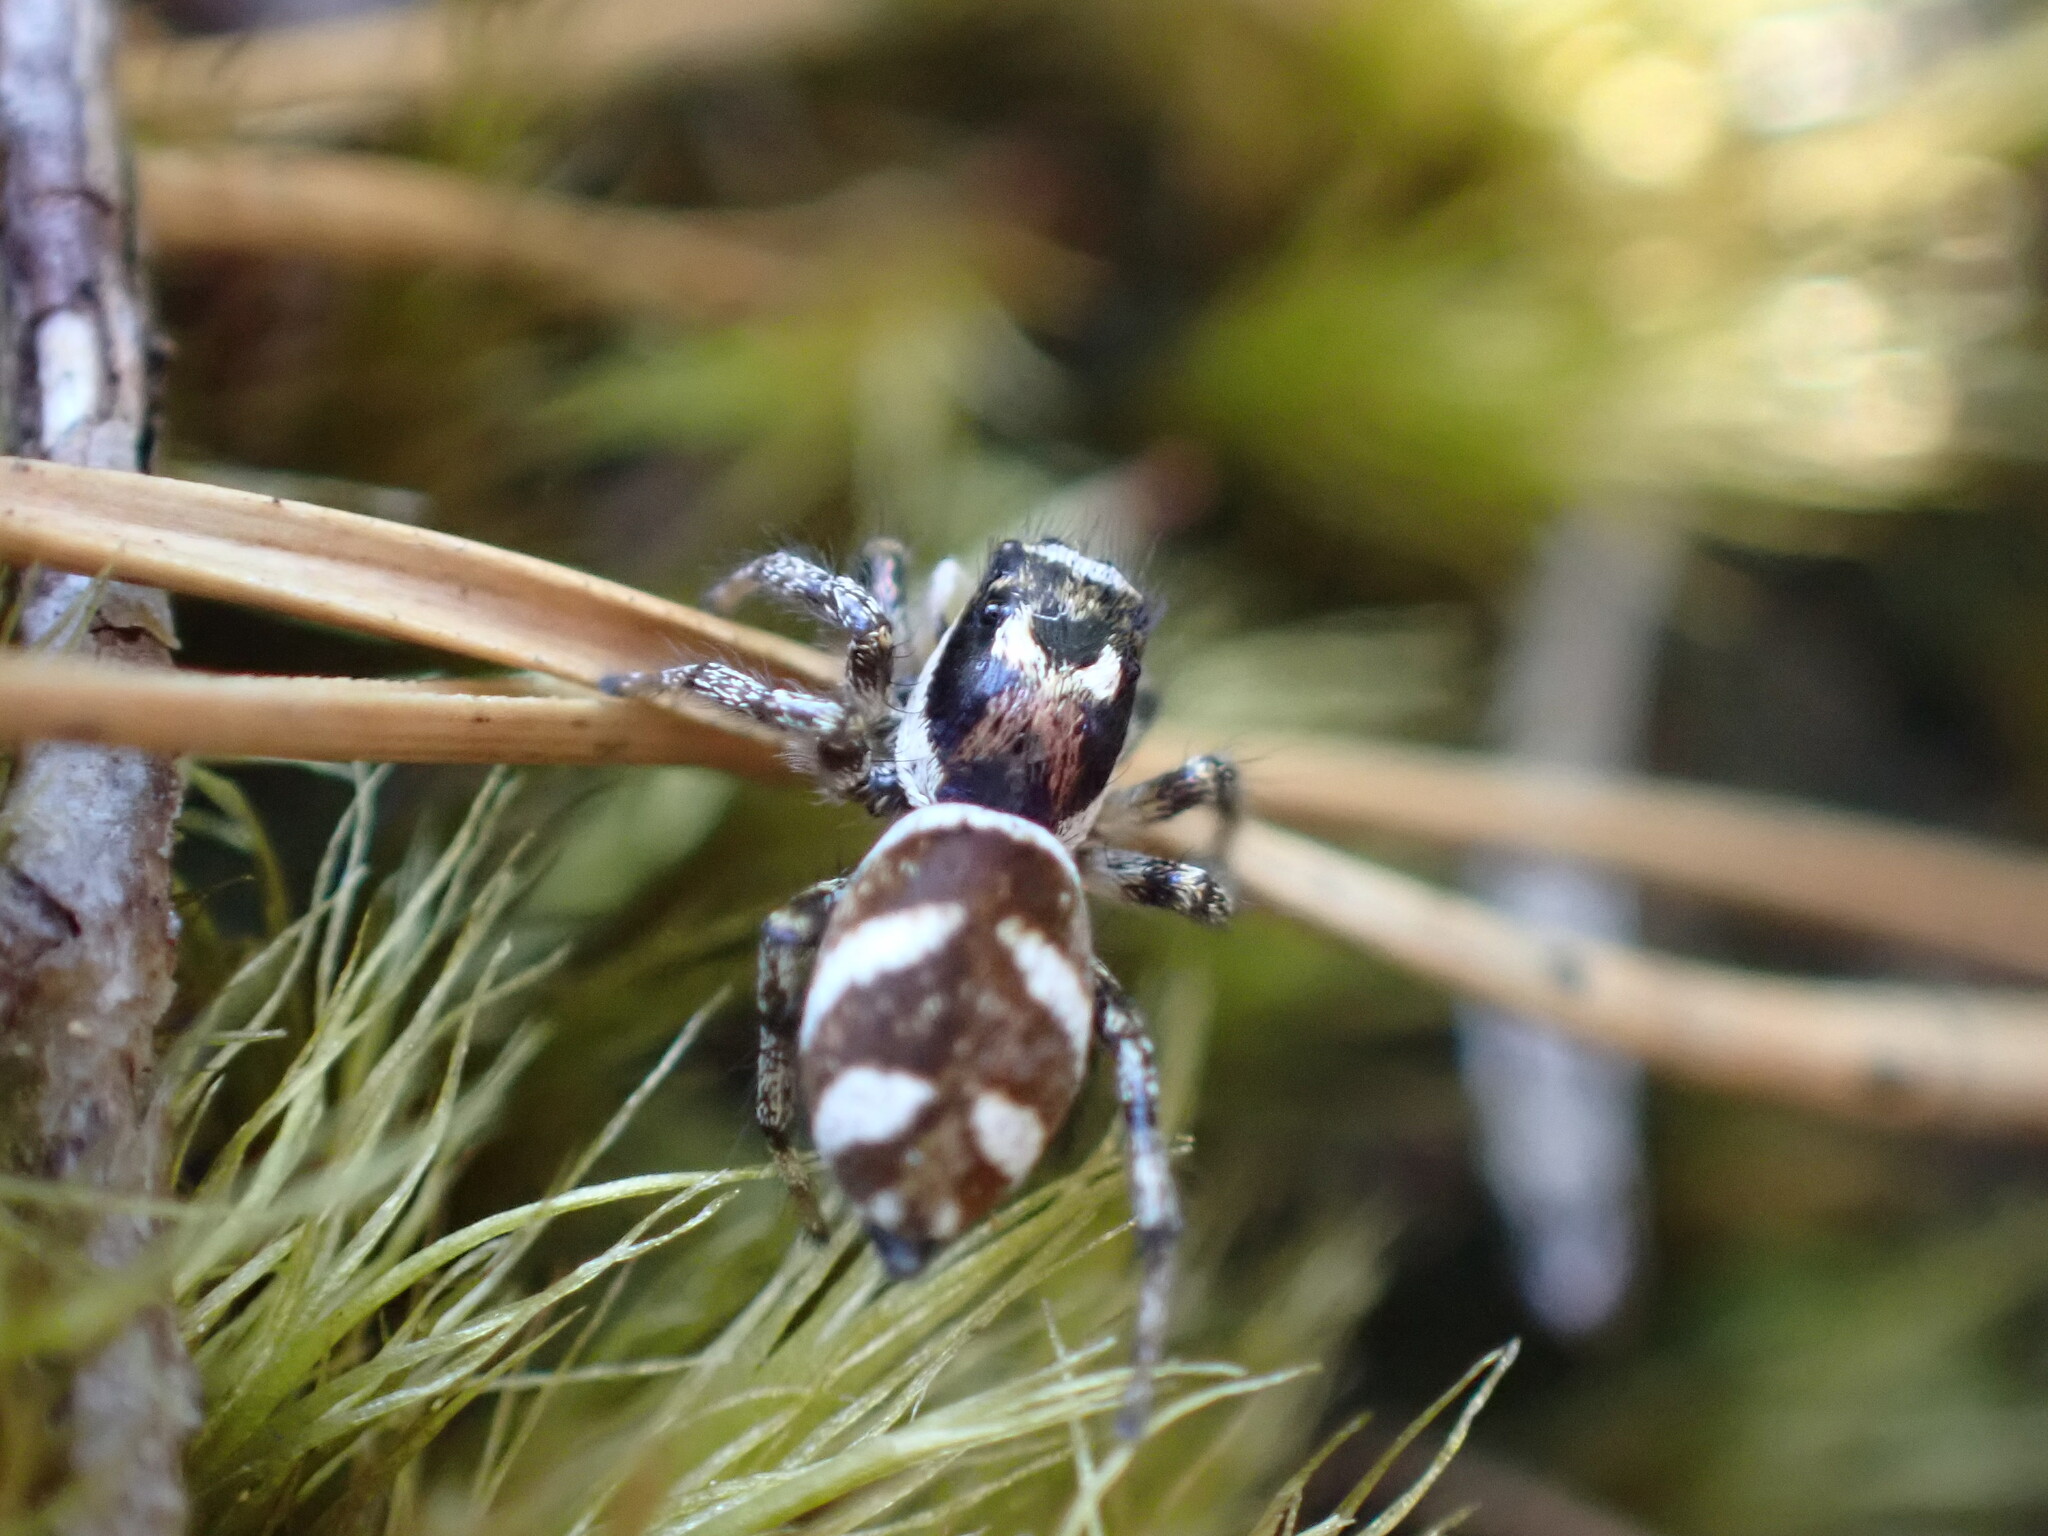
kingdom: Animalia
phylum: Arthropoda
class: Arachnida
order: Araneae
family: Salticidae
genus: Salticus
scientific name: Salticus scenicus
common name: Zebra jumper
